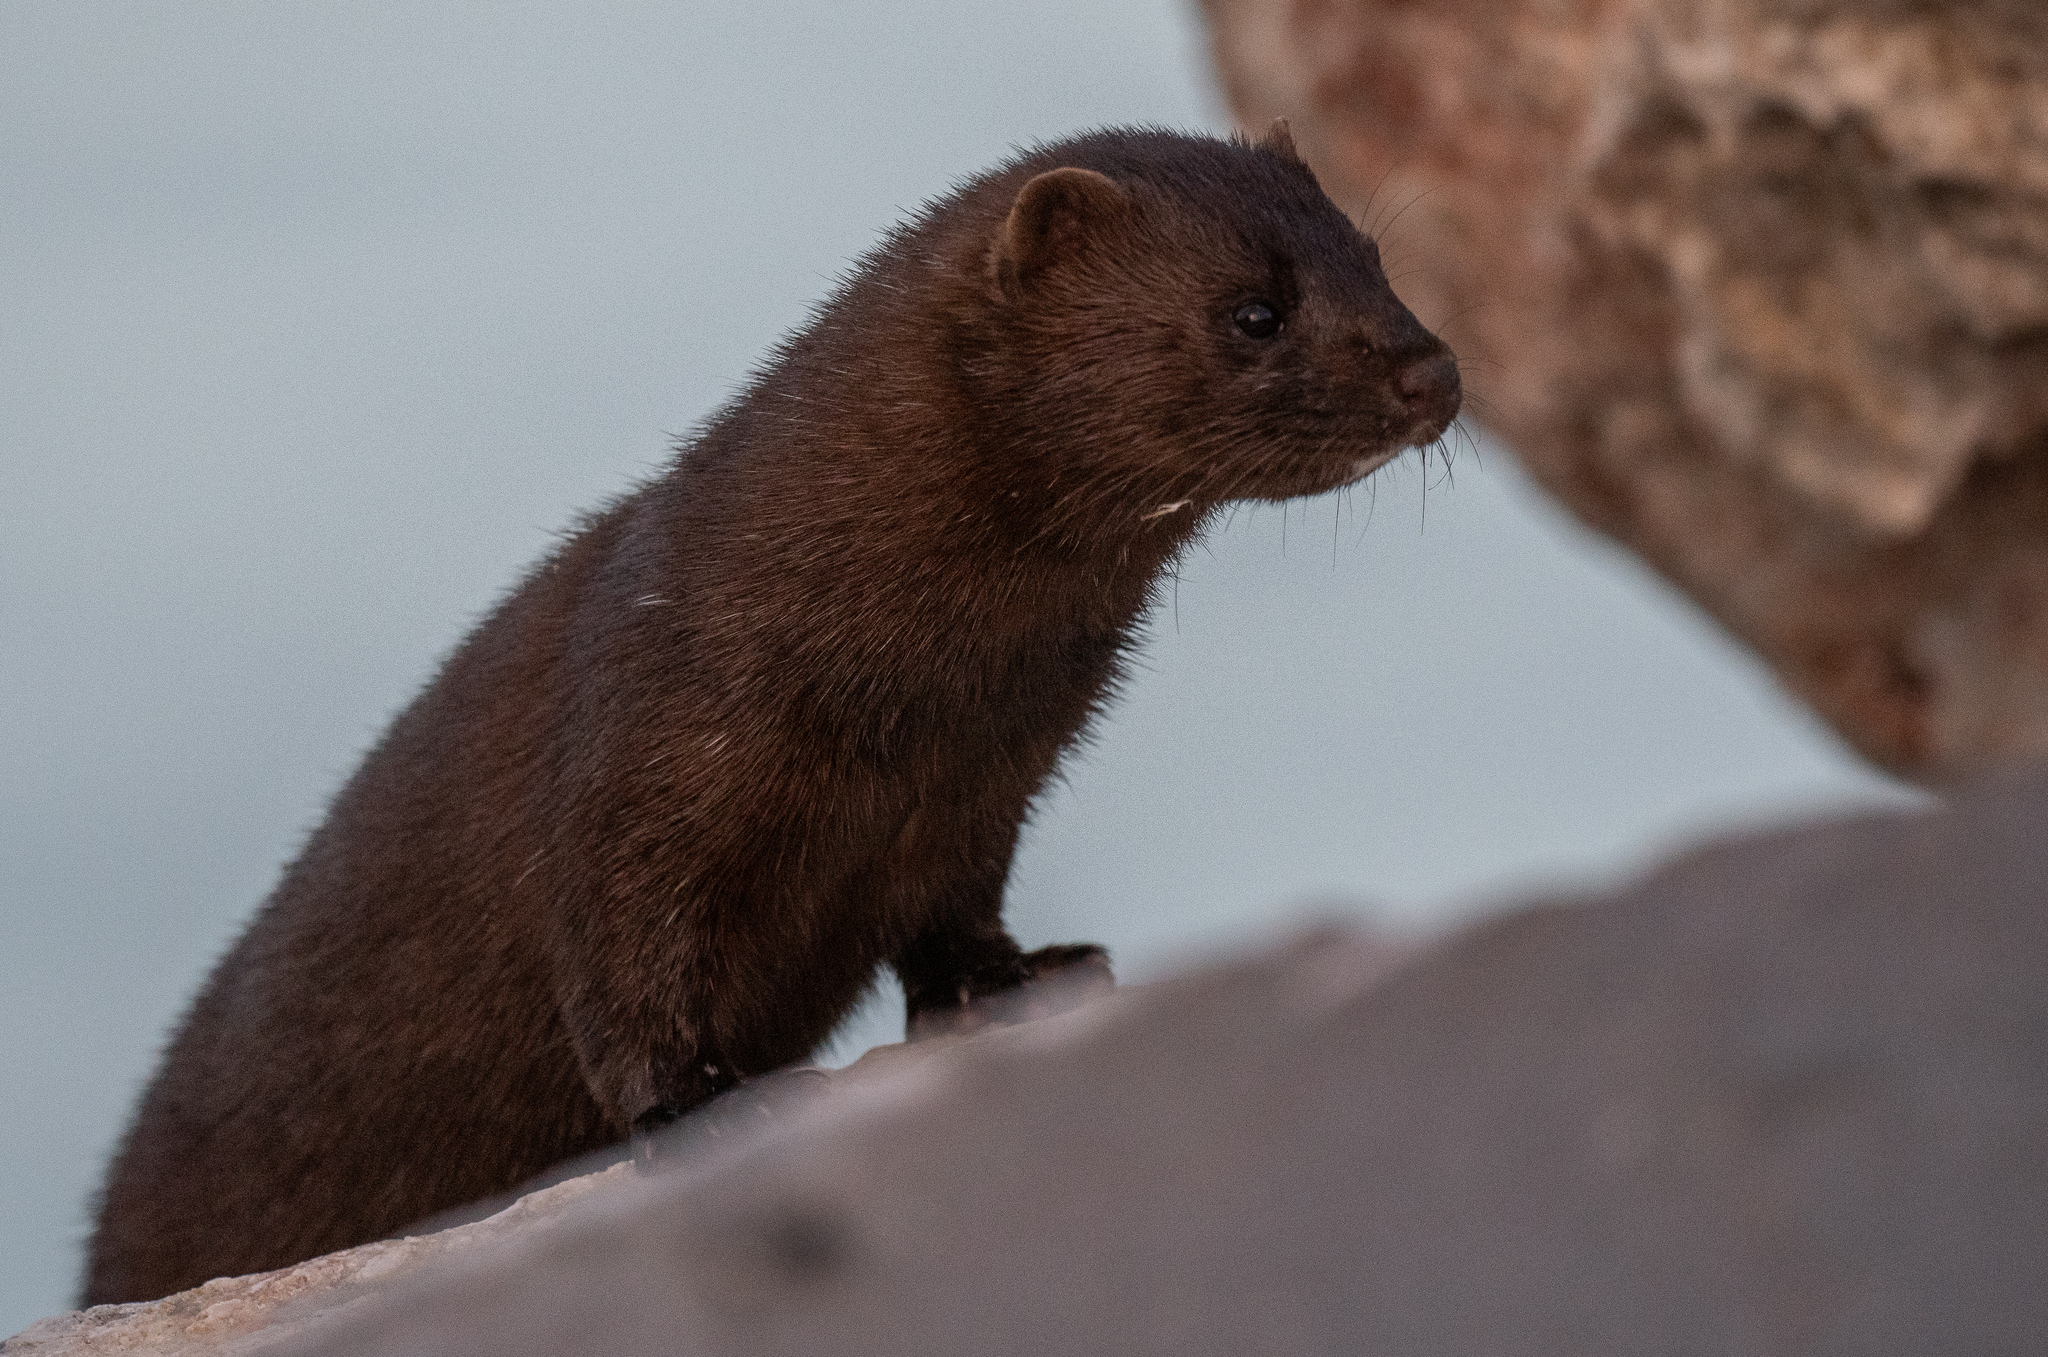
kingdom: Animalia
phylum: Chordata
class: Mammalia
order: Carnivora
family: Mustelidae
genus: Mustela
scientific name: Mustela
